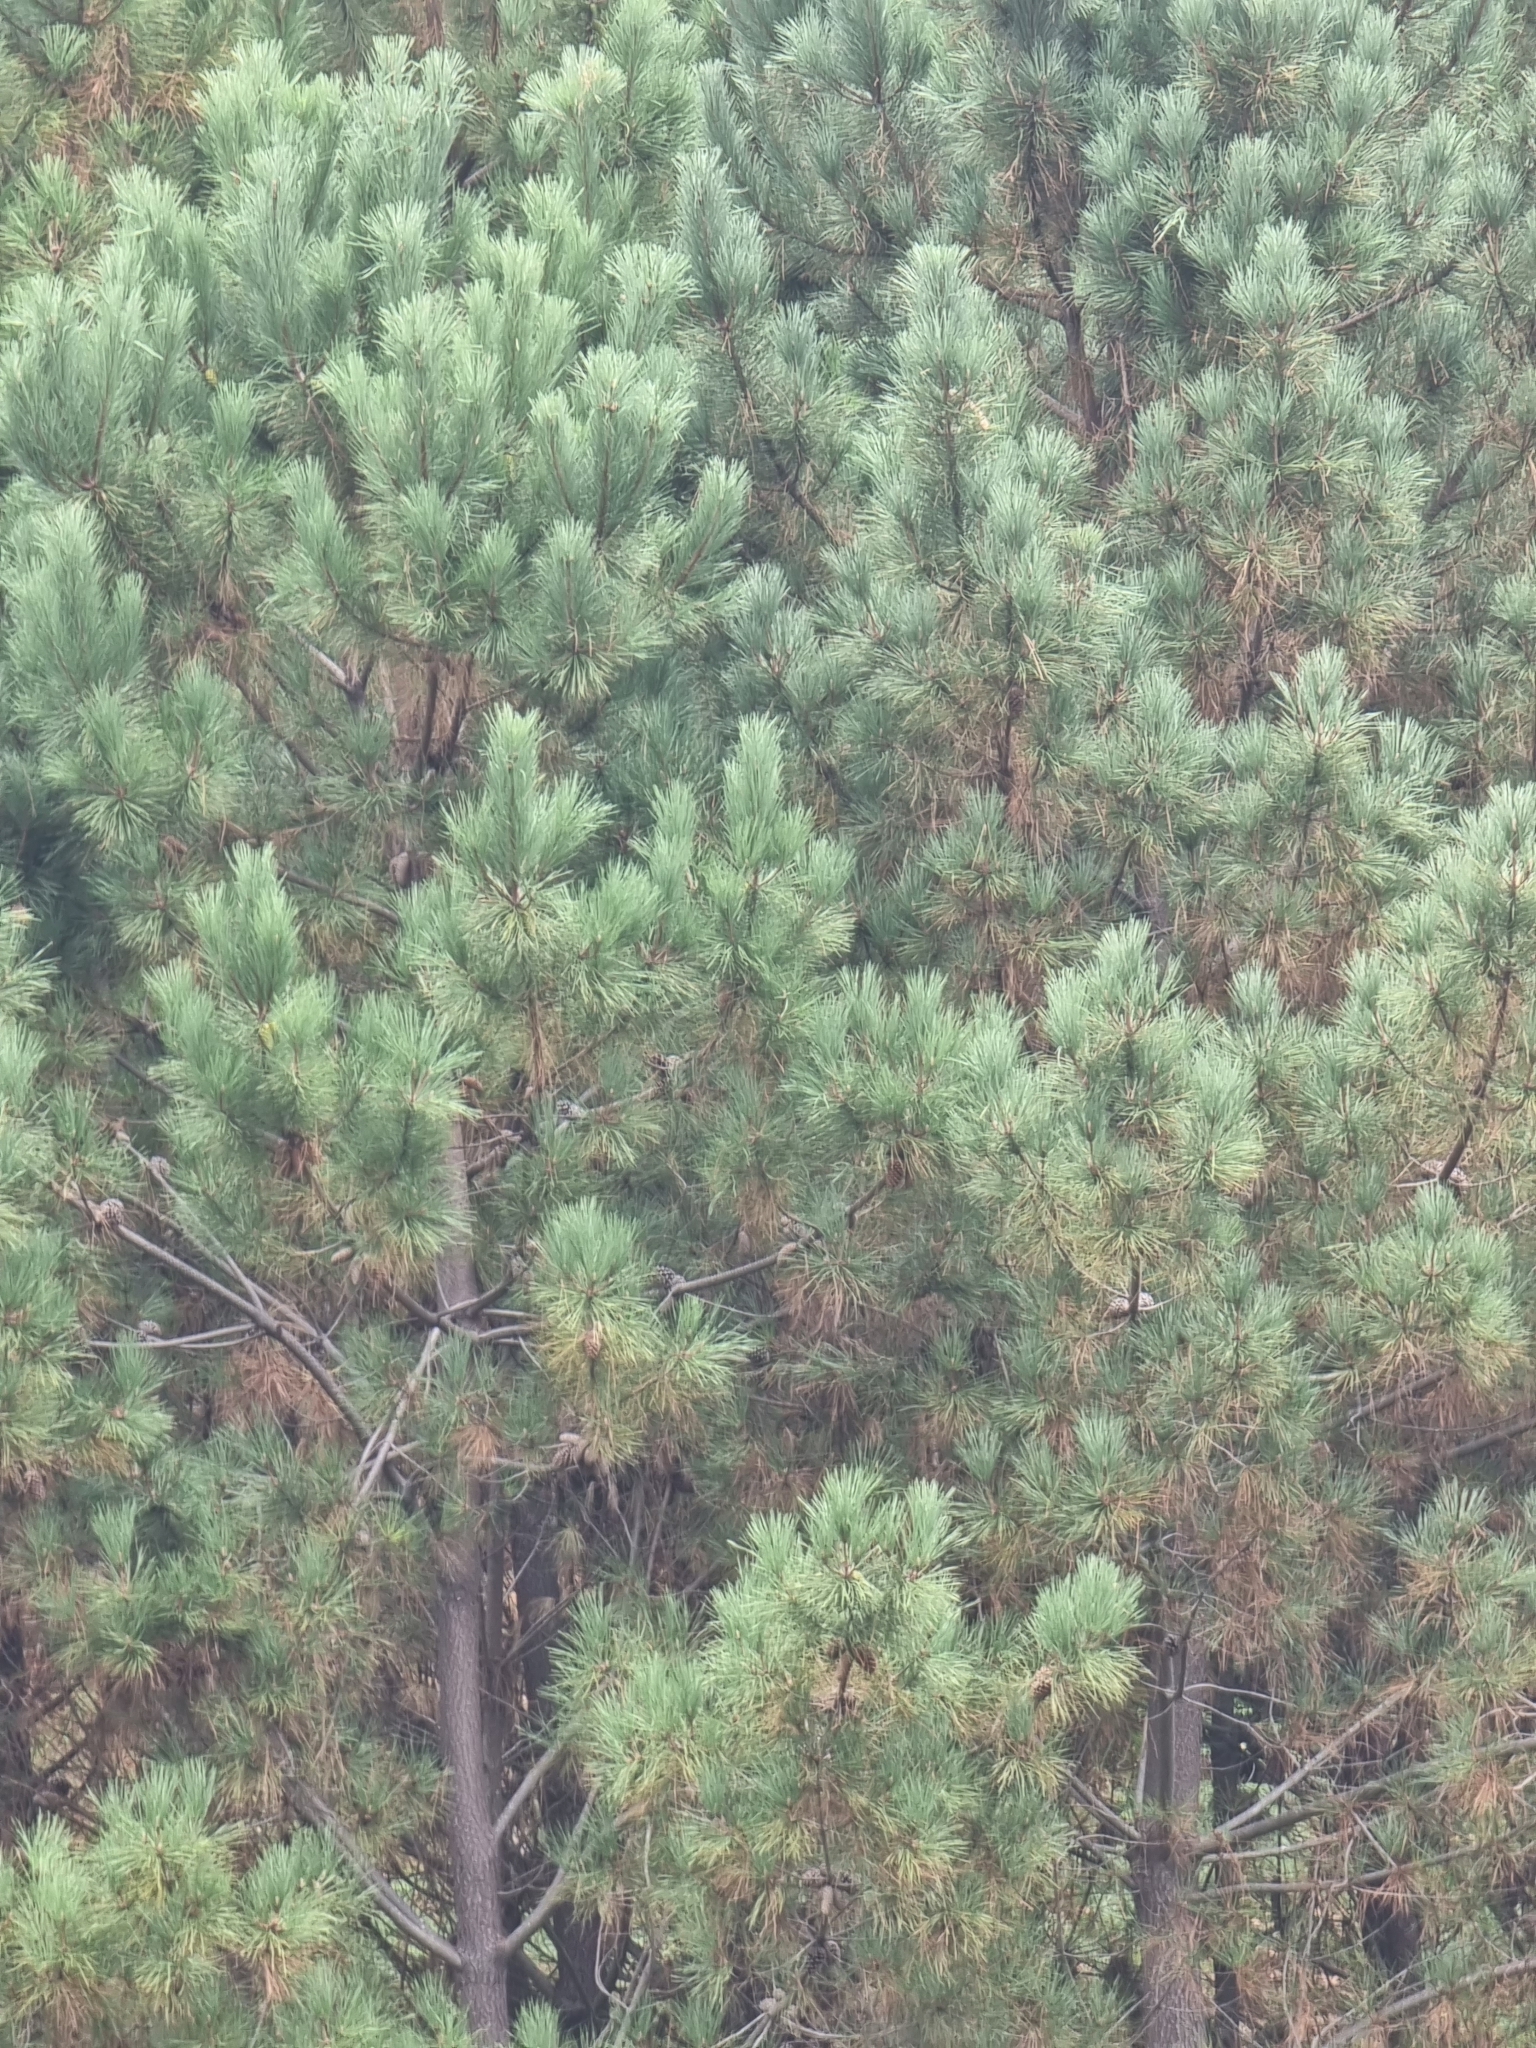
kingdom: Plantae
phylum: Tracheophyta
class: Pinopsida
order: Pinales
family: Pinaceae
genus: Pinus
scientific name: Pinus pinaster
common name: Maritime pine
